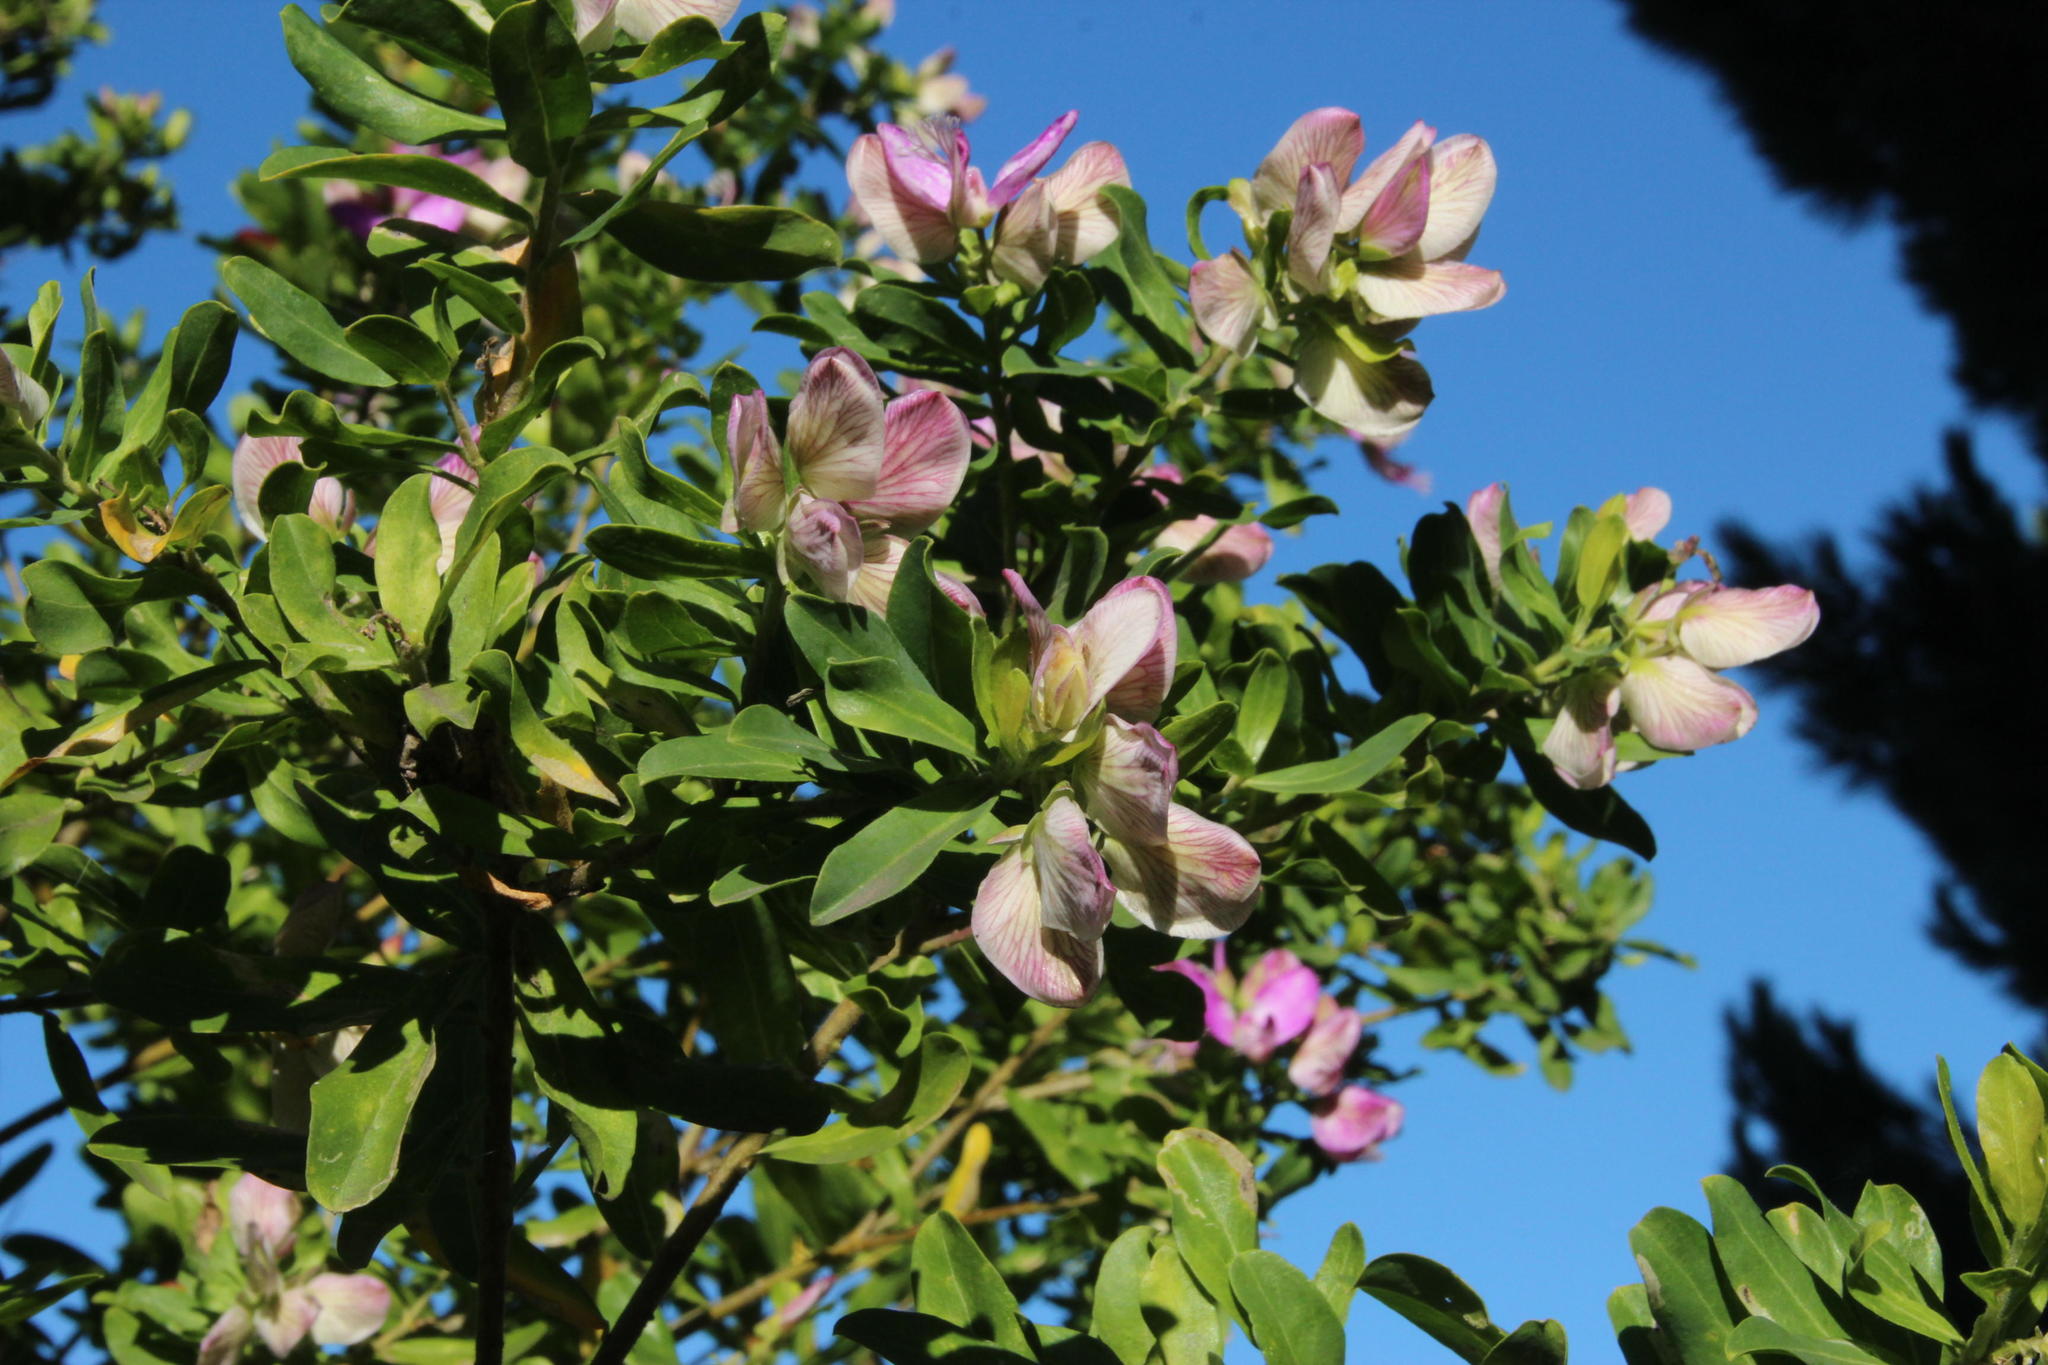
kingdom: Plantae
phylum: Tracheophyta
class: Magnoliopsida
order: Fabales
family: Polygalaceae
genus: Polygala
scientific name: Polygala myrtifolia
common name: Myrtle-leaf milkwort
